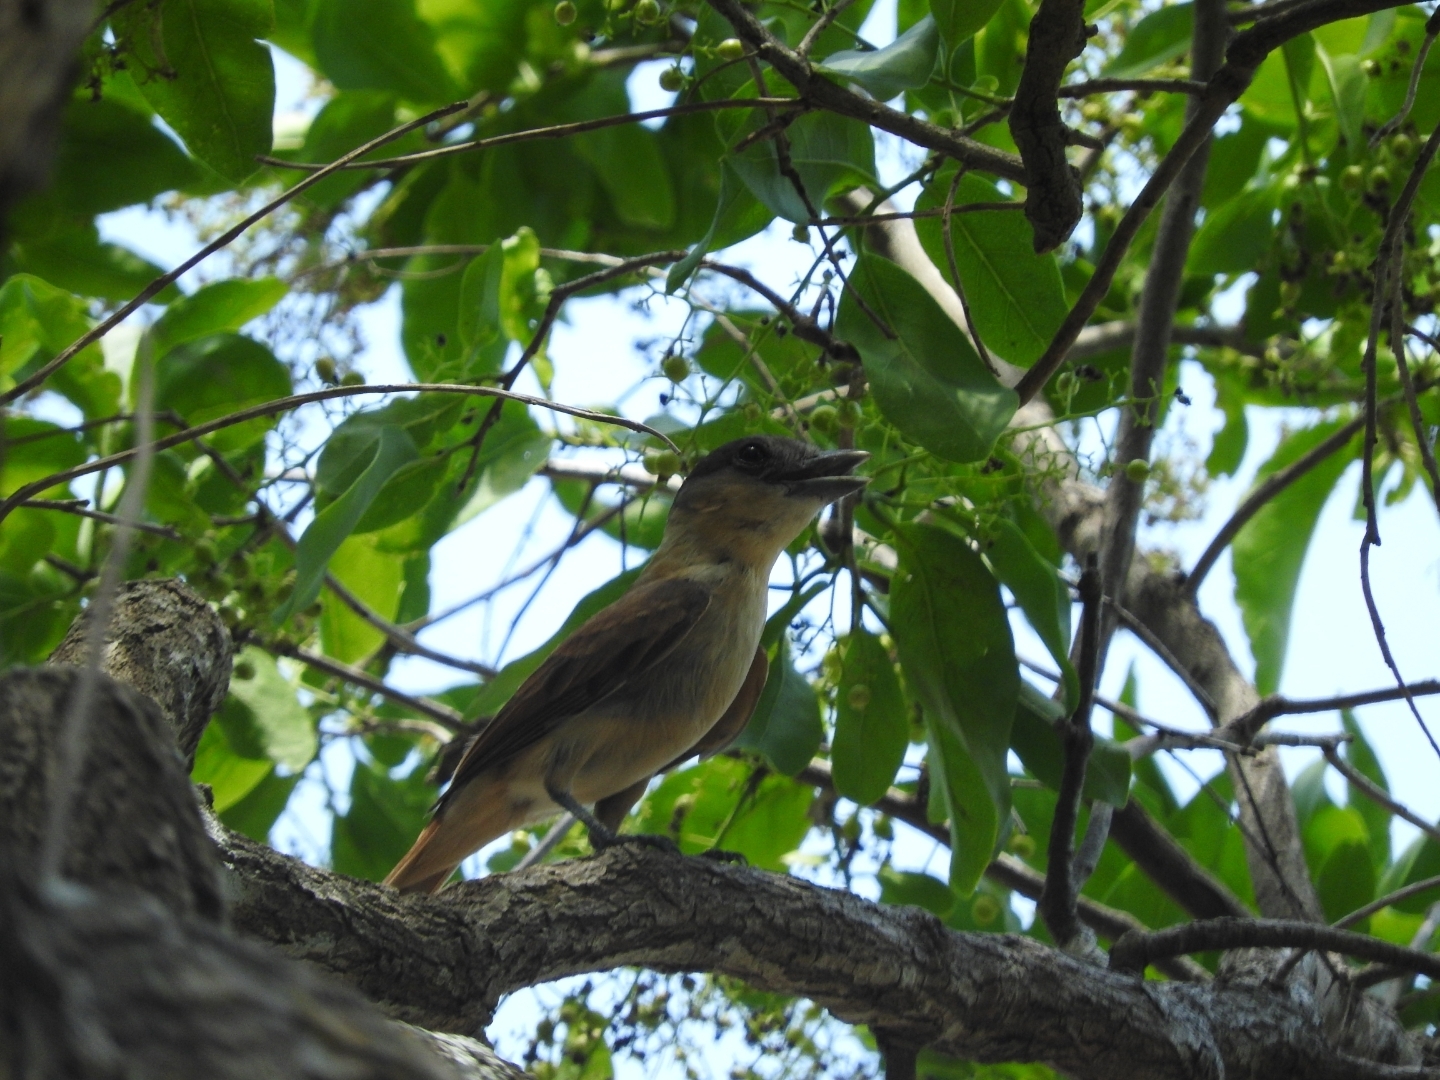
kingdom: Animalia
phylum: Chordata
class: Aves
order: Passeriformes
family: Cotingidae
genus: Pachyramphus
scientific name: Pachyramphus aglaiae
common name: Rose-throated becard
